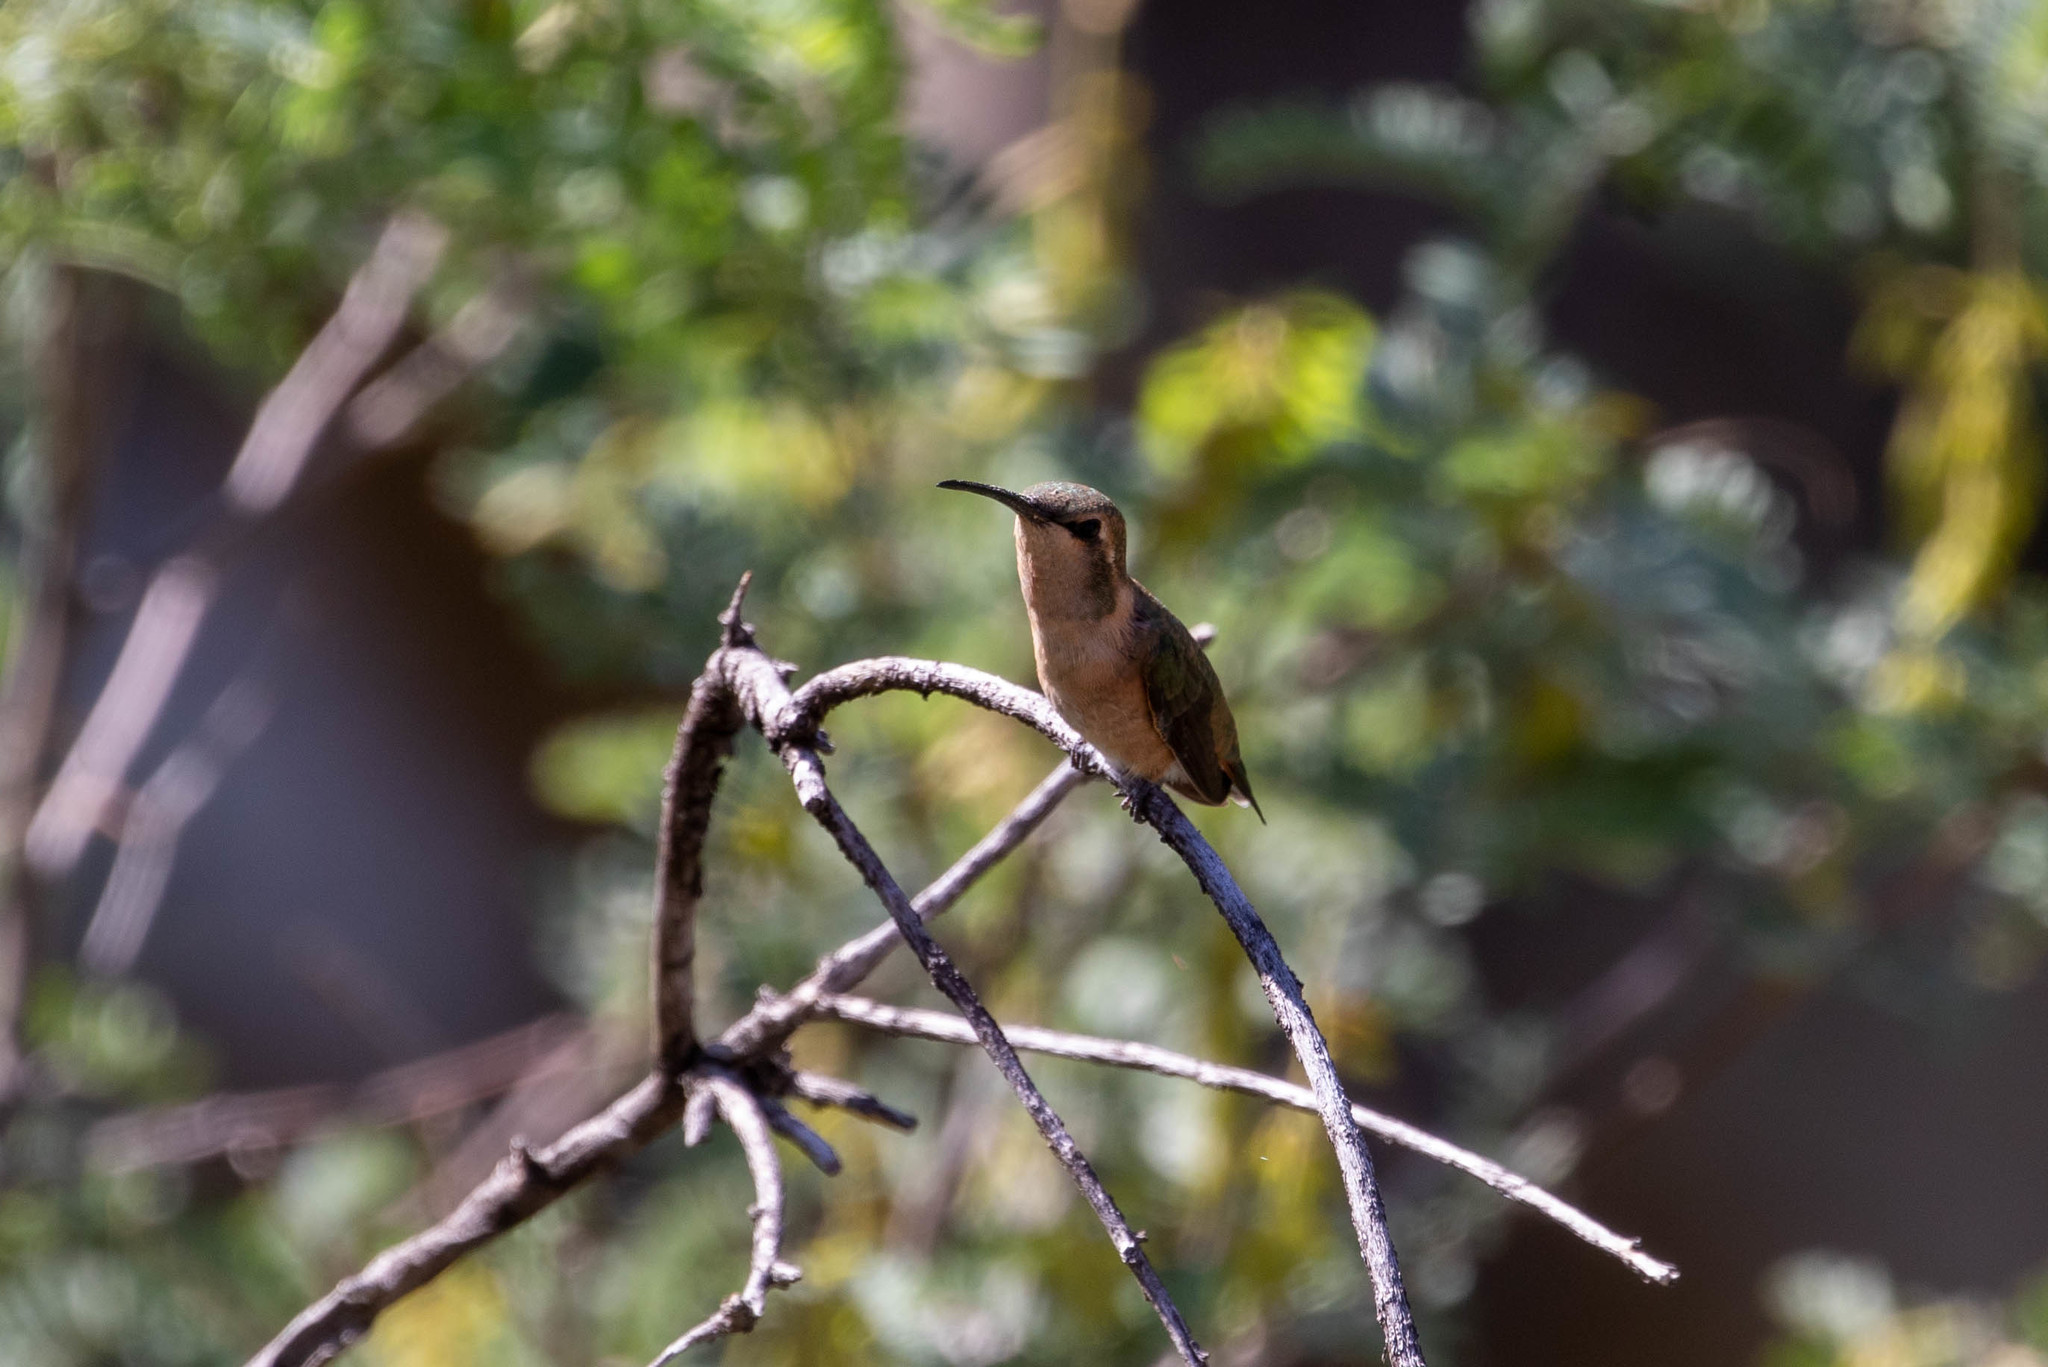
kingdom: Animalia
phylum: Chordata
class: Aves
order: Apodiformes
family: Trochilidae
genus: Calothorax
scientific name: Calothorax lucifer
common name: Lucifer sheartail
